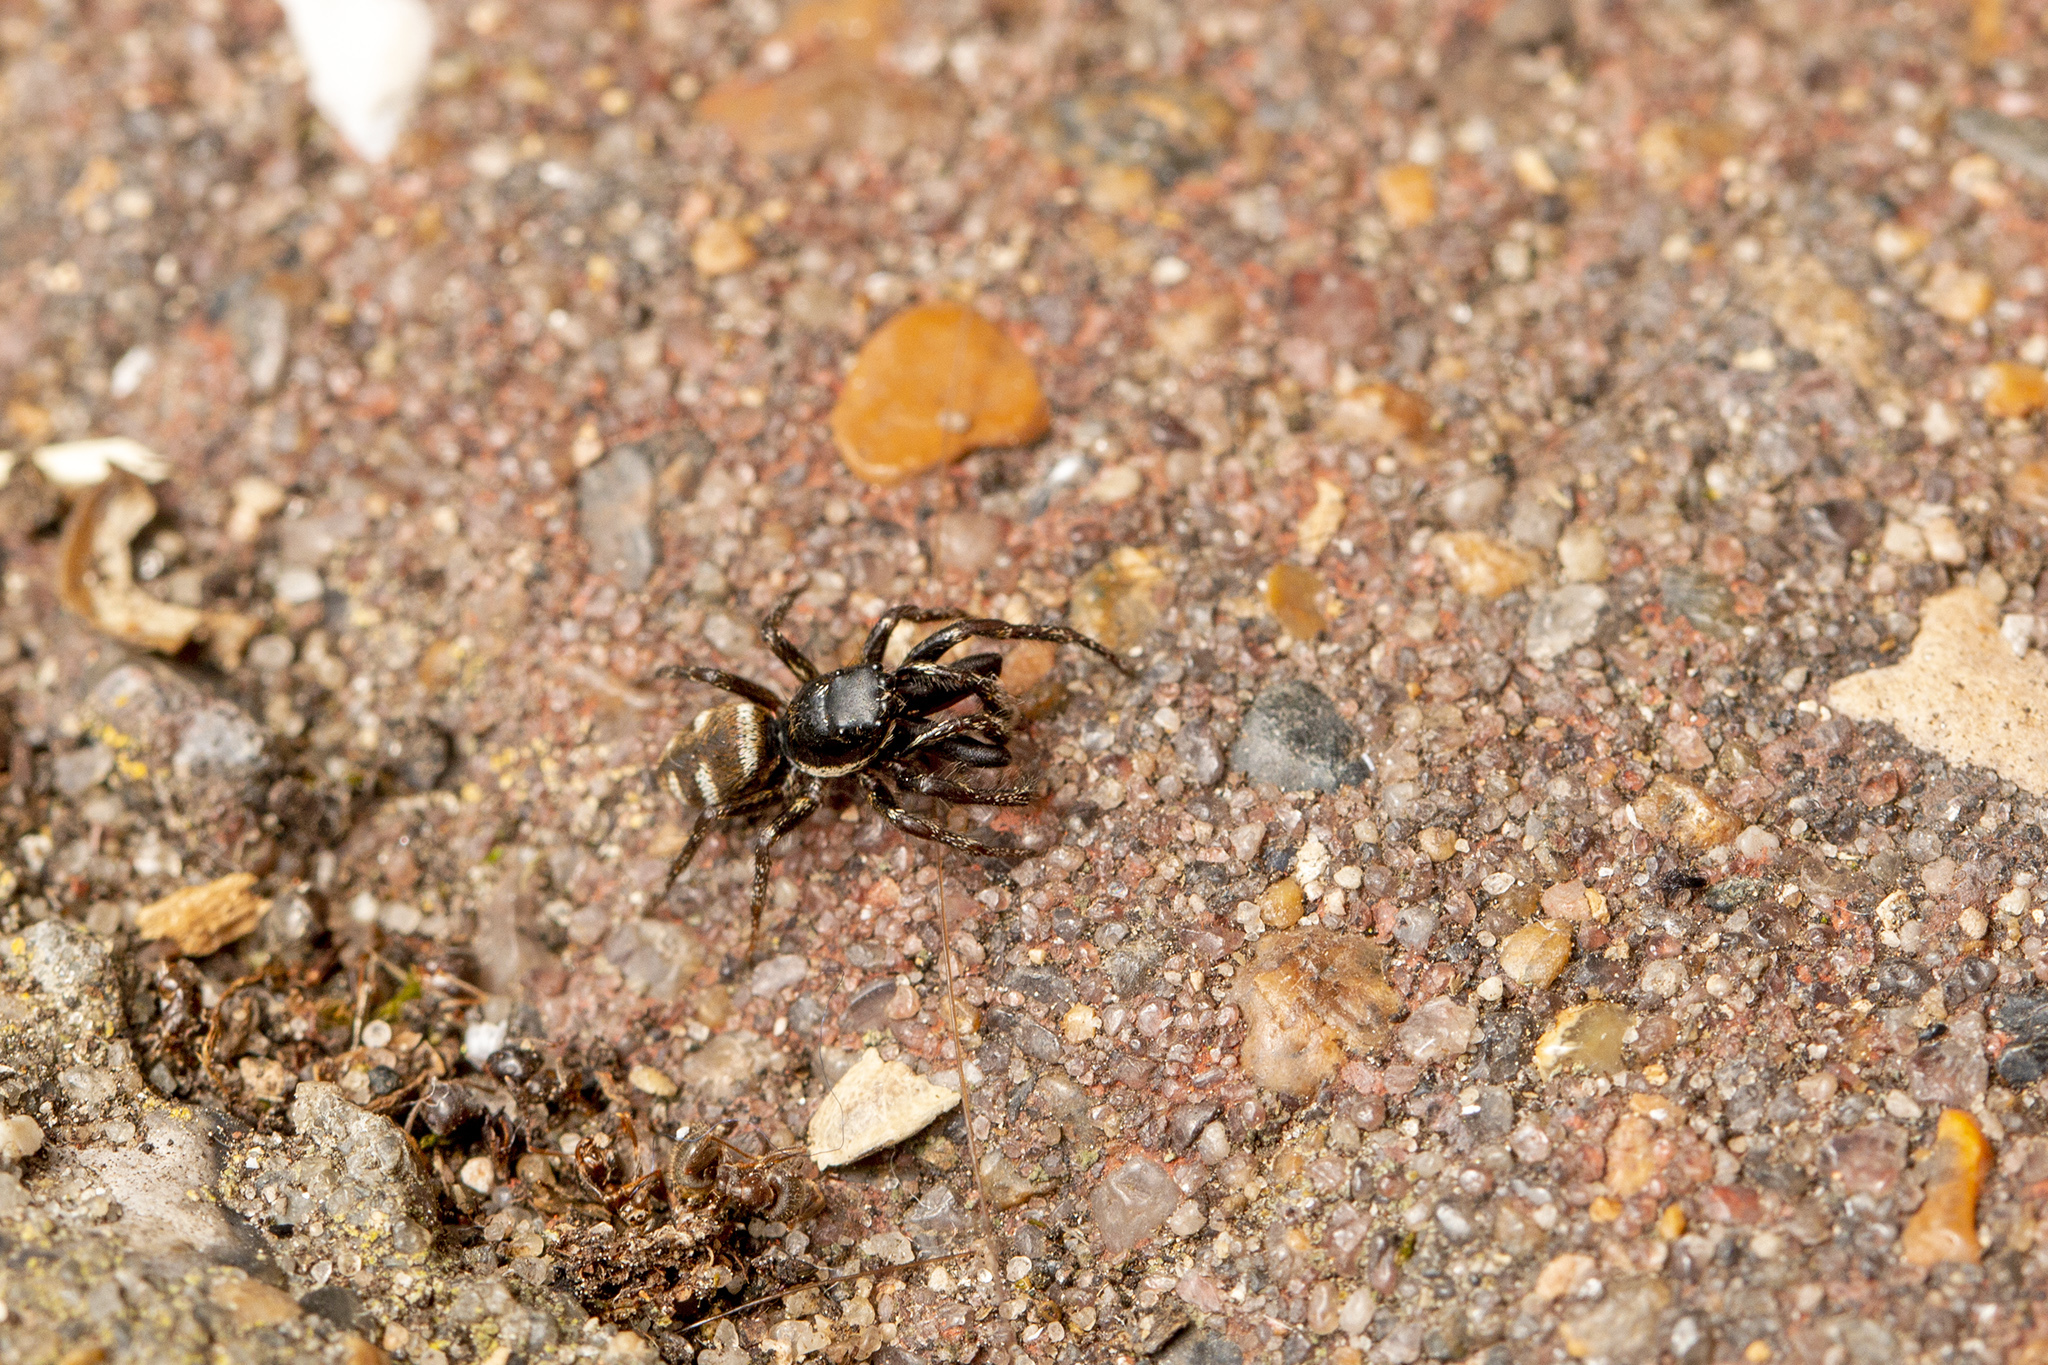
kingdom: Animalia
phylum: Arthropoda
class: Arachnida
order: Araneae
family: Salticidae
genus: Salticus
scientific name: Salticus scenicus
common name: Zebra jumper
